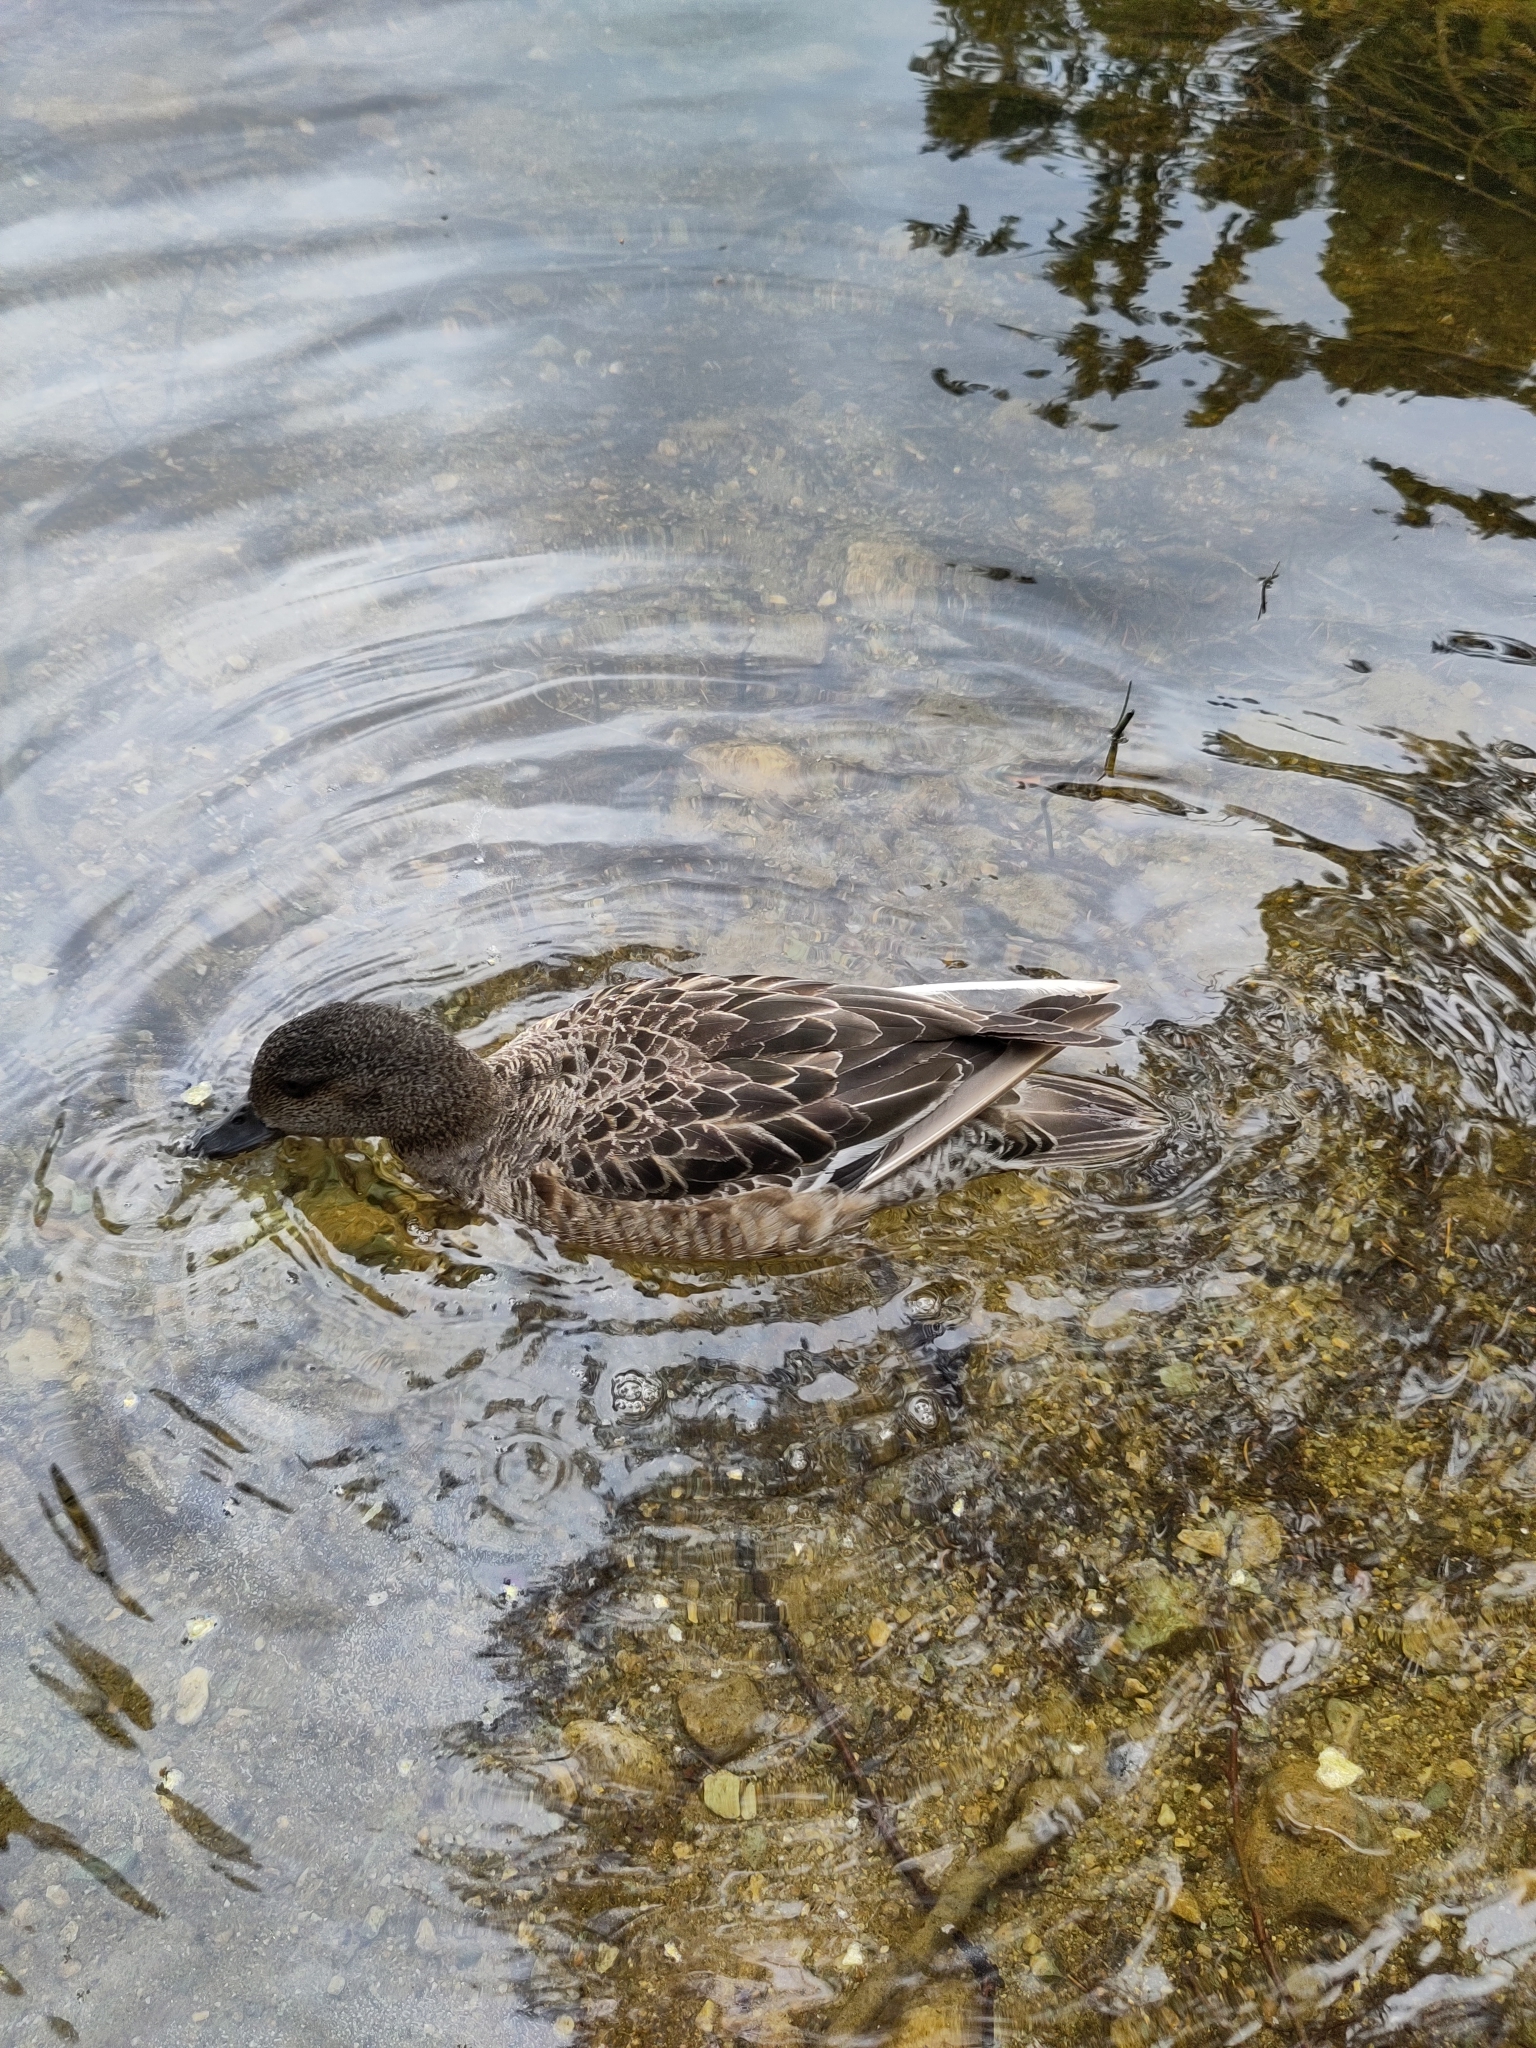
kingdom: Animalia
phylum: Chordata
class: Aves
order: Anseriformes
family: Anatidae
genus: Mareca
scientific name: Mareca penelope
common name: Eurasian wigeon
